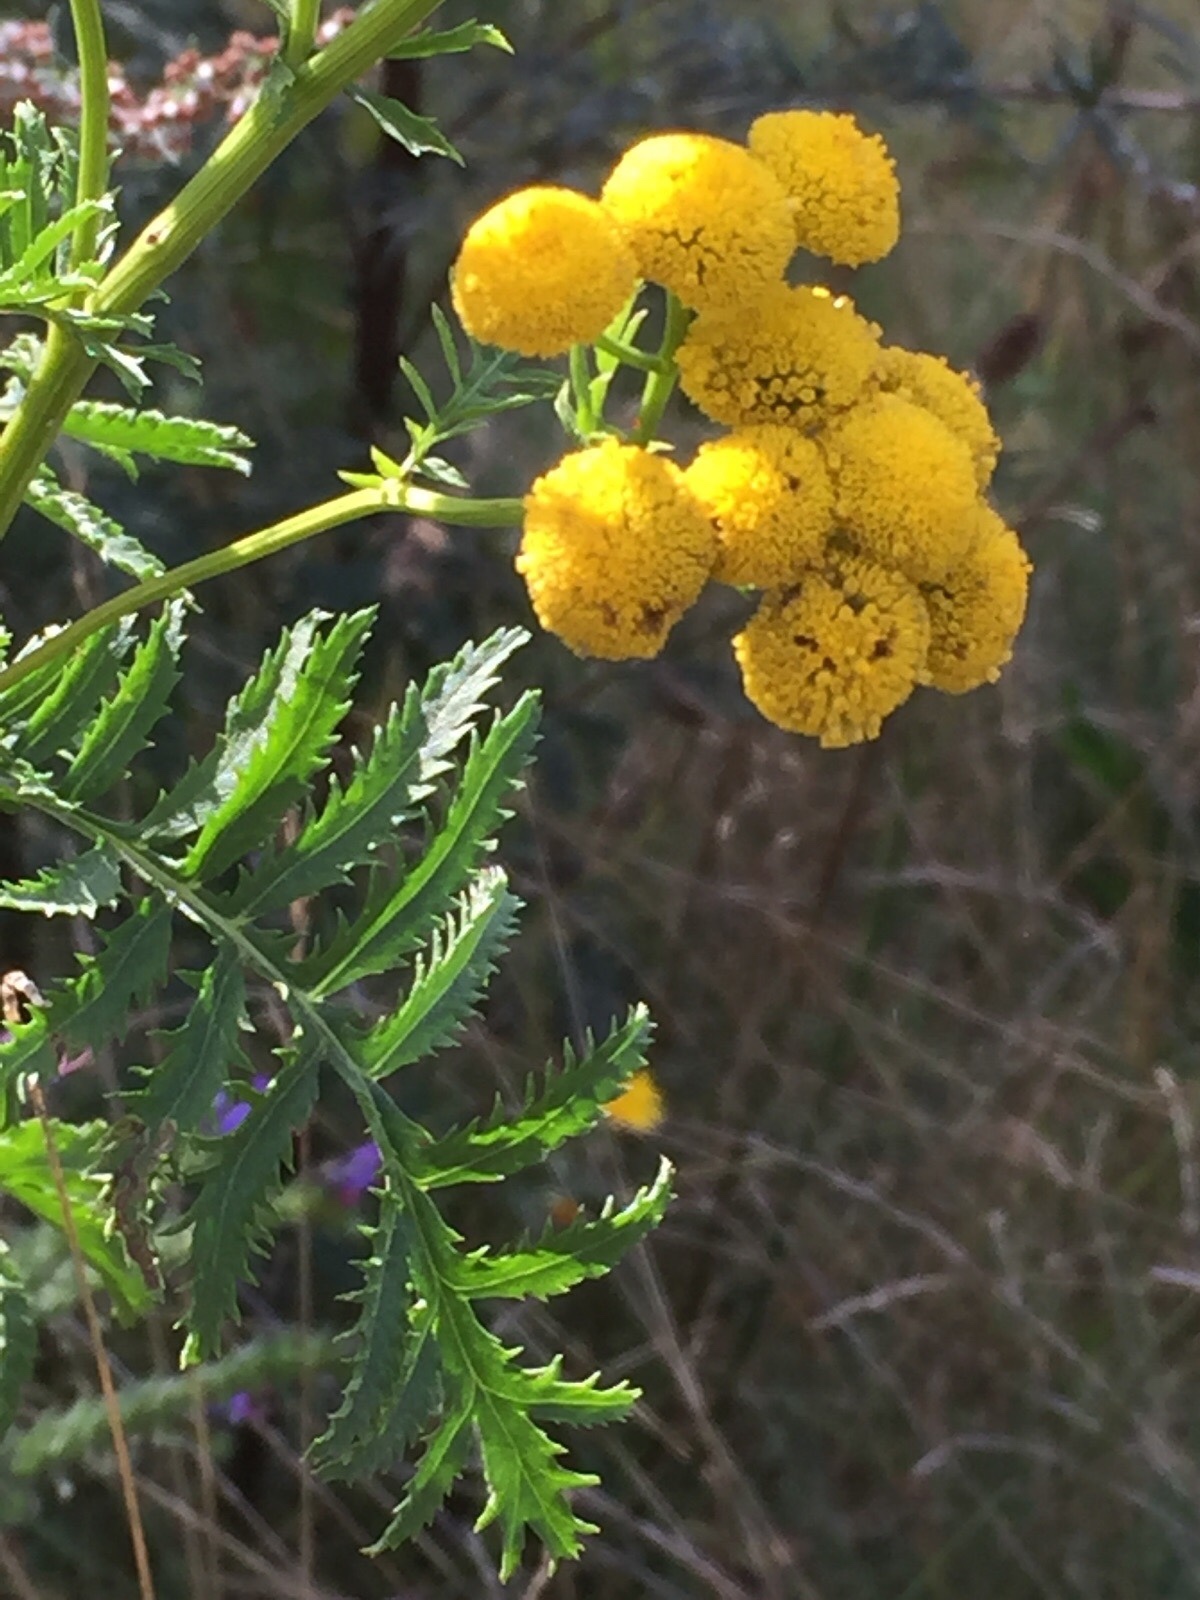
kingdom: Plantae
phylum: Tracheophyta
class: Magnoliopsida
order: Asterales
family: Asteraceae
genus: Tanacetum
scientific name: Tanacetum vulgare
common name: Common tansy
